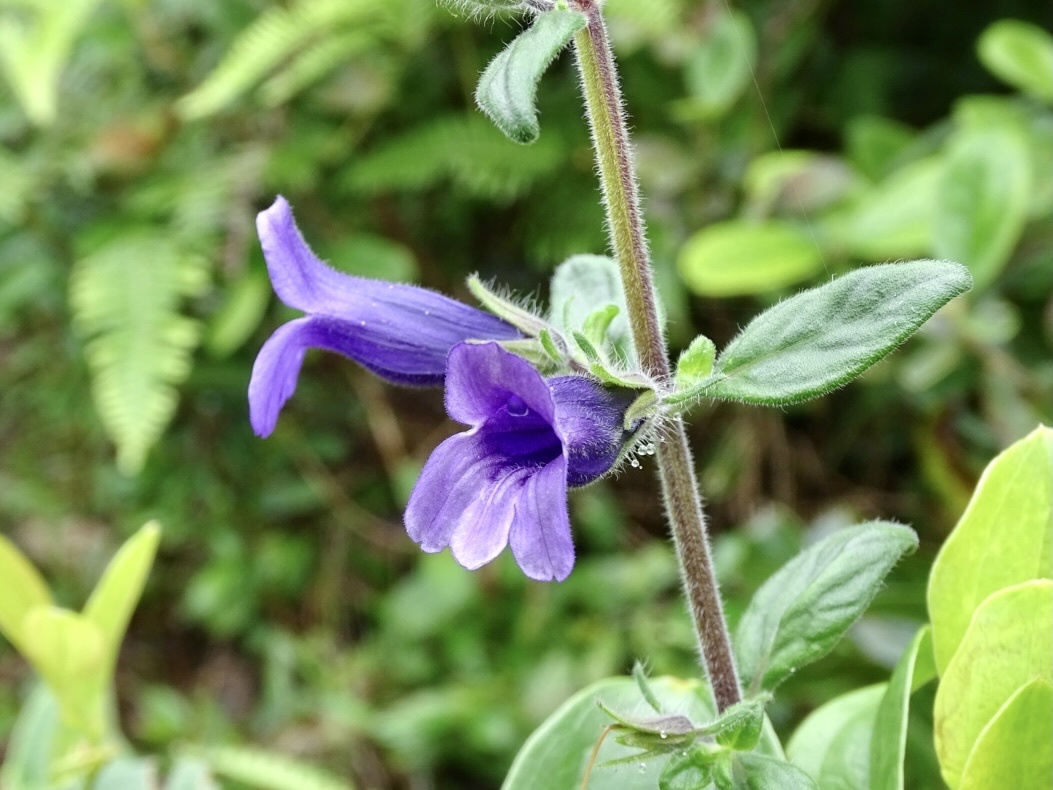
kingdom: Plantae
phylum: Tracheophyta
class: Magnoliopsida
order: Lamiales
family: Plantaginaceae
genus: Adenosma
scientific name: Adenosma glutinosa
